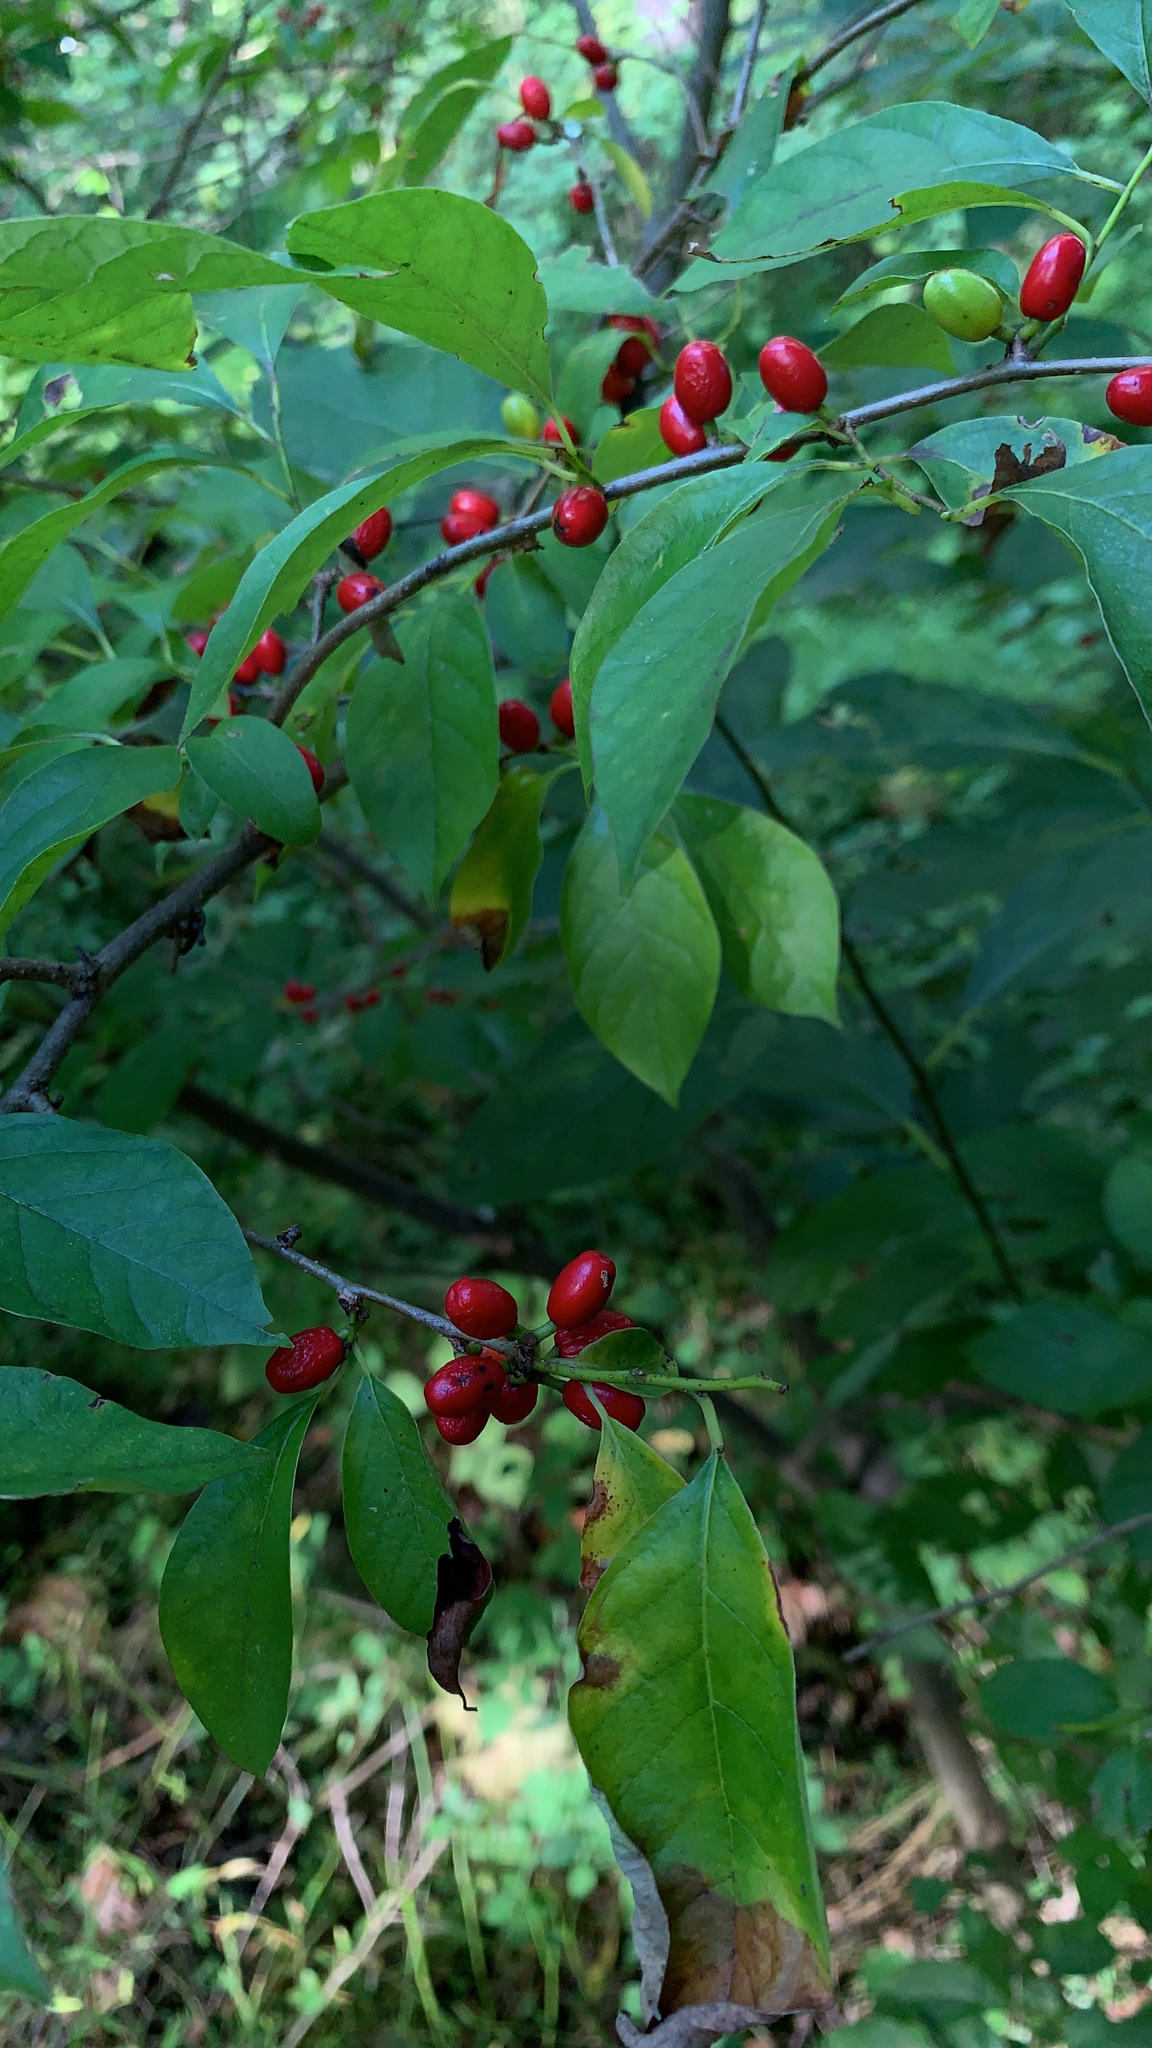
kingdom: Plantae
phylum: Tracheophyta
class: Magnoliopsida
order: Laurales
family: Lauraceae
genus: Lindera
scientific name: Lindera benzoin
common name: Spicebush
